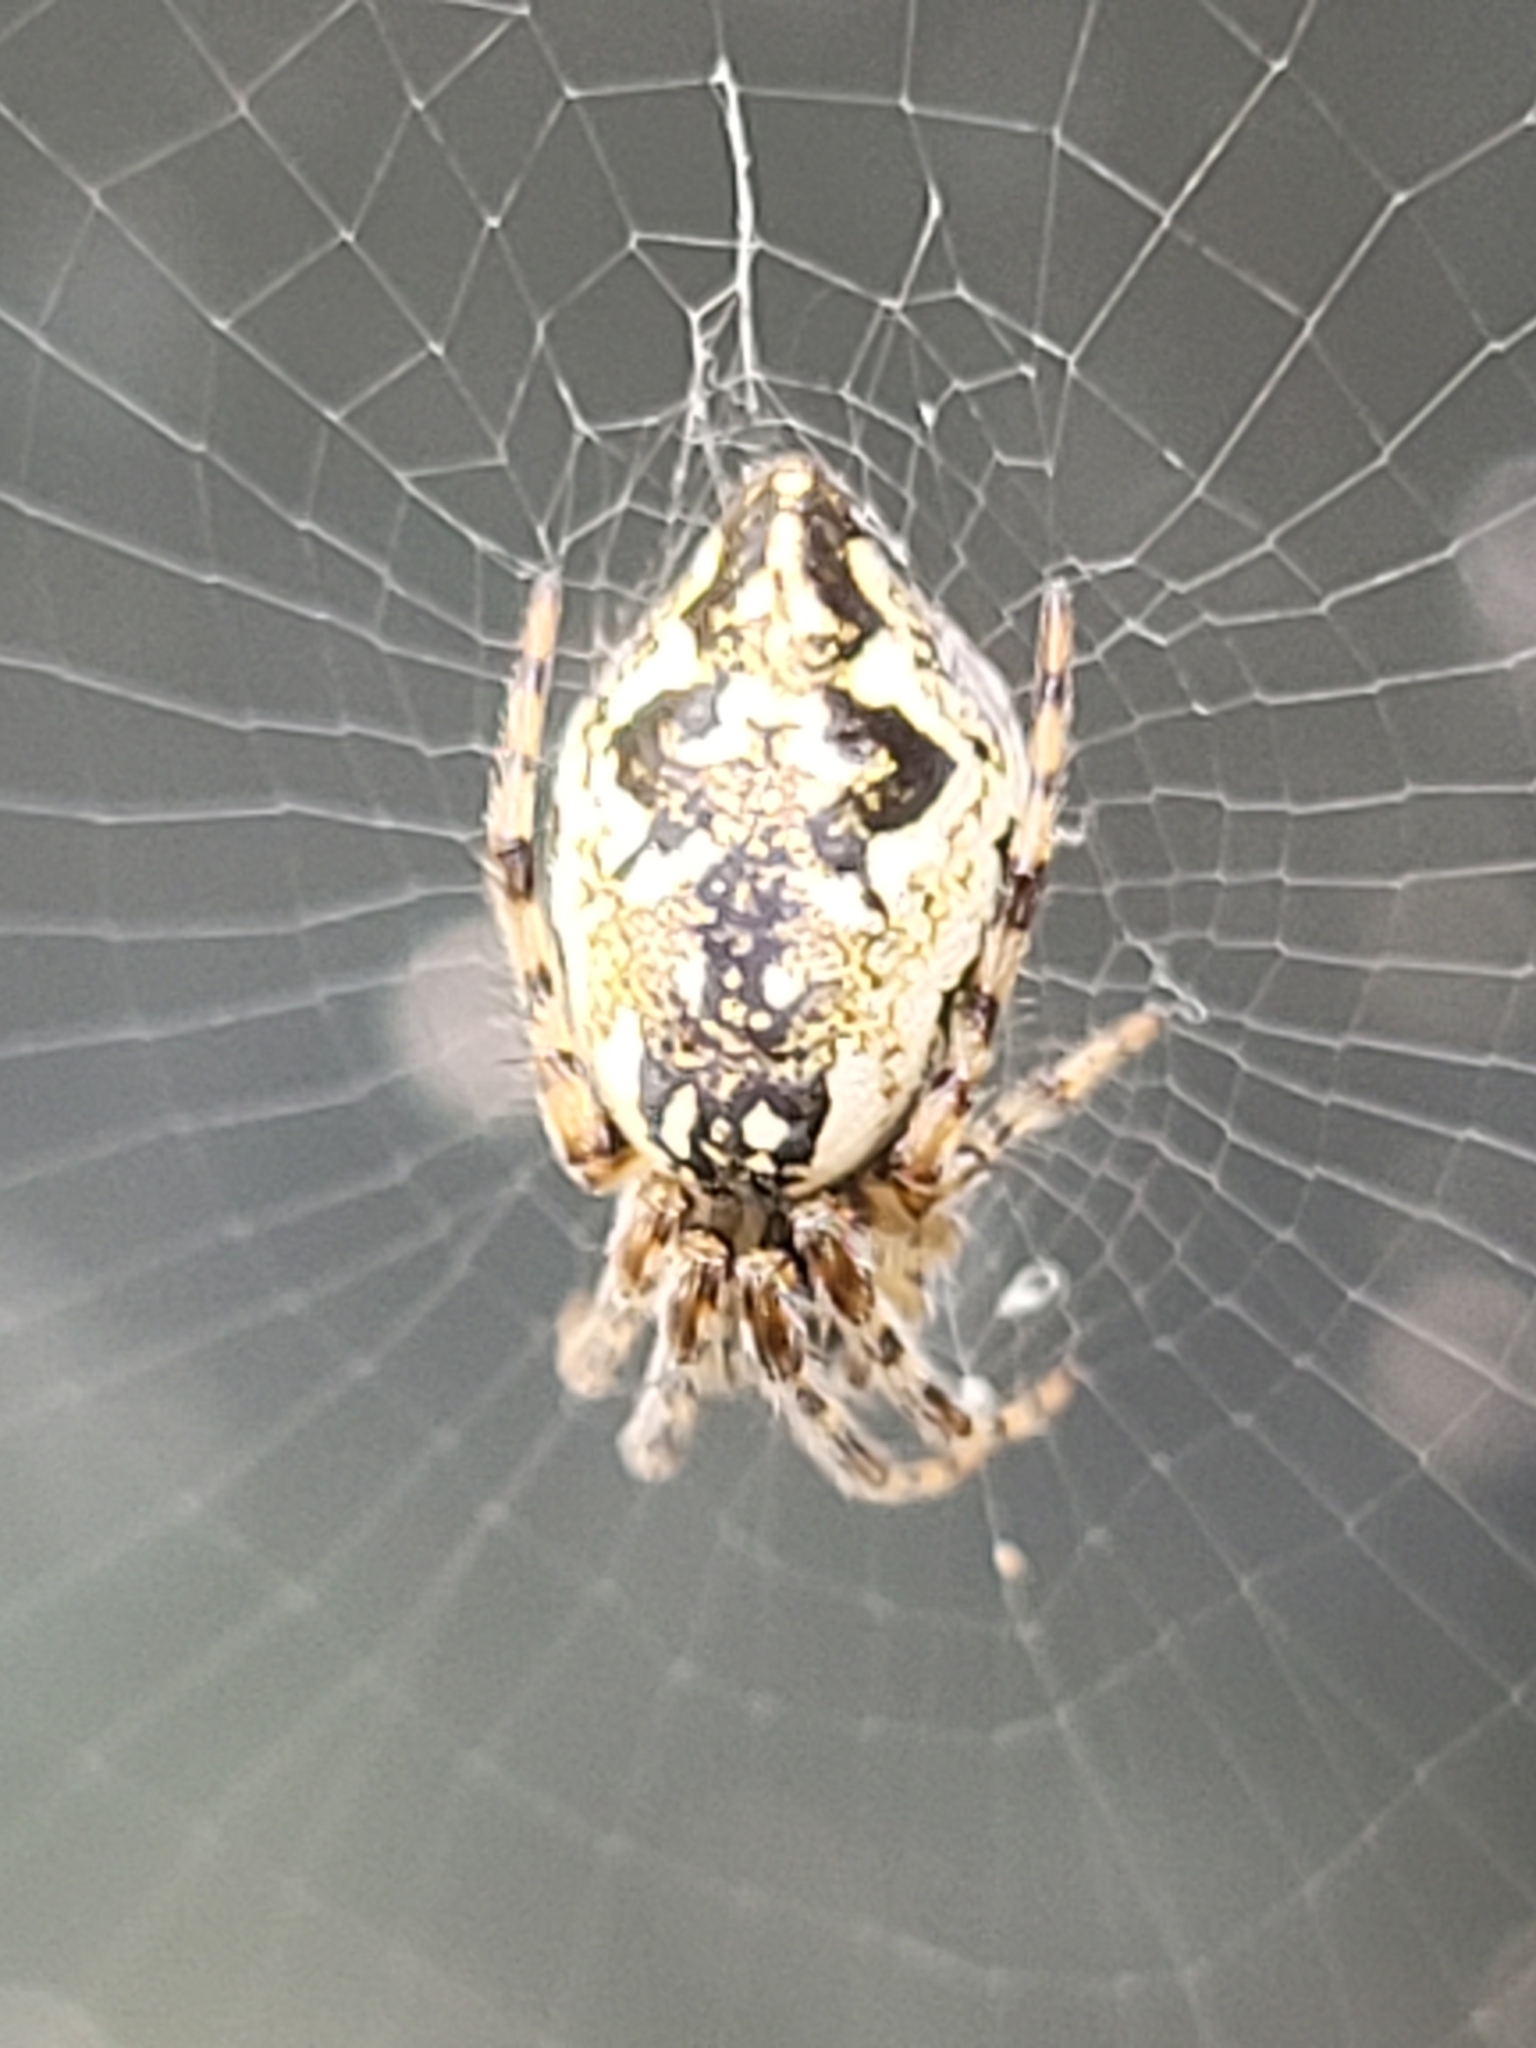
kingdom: Animalia
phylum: Arthropoda
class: Arachnida
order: Araneae
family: Araneidae
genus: Cyclosa
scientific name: Cyclosa conica
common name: Conical trashline orbweaver
